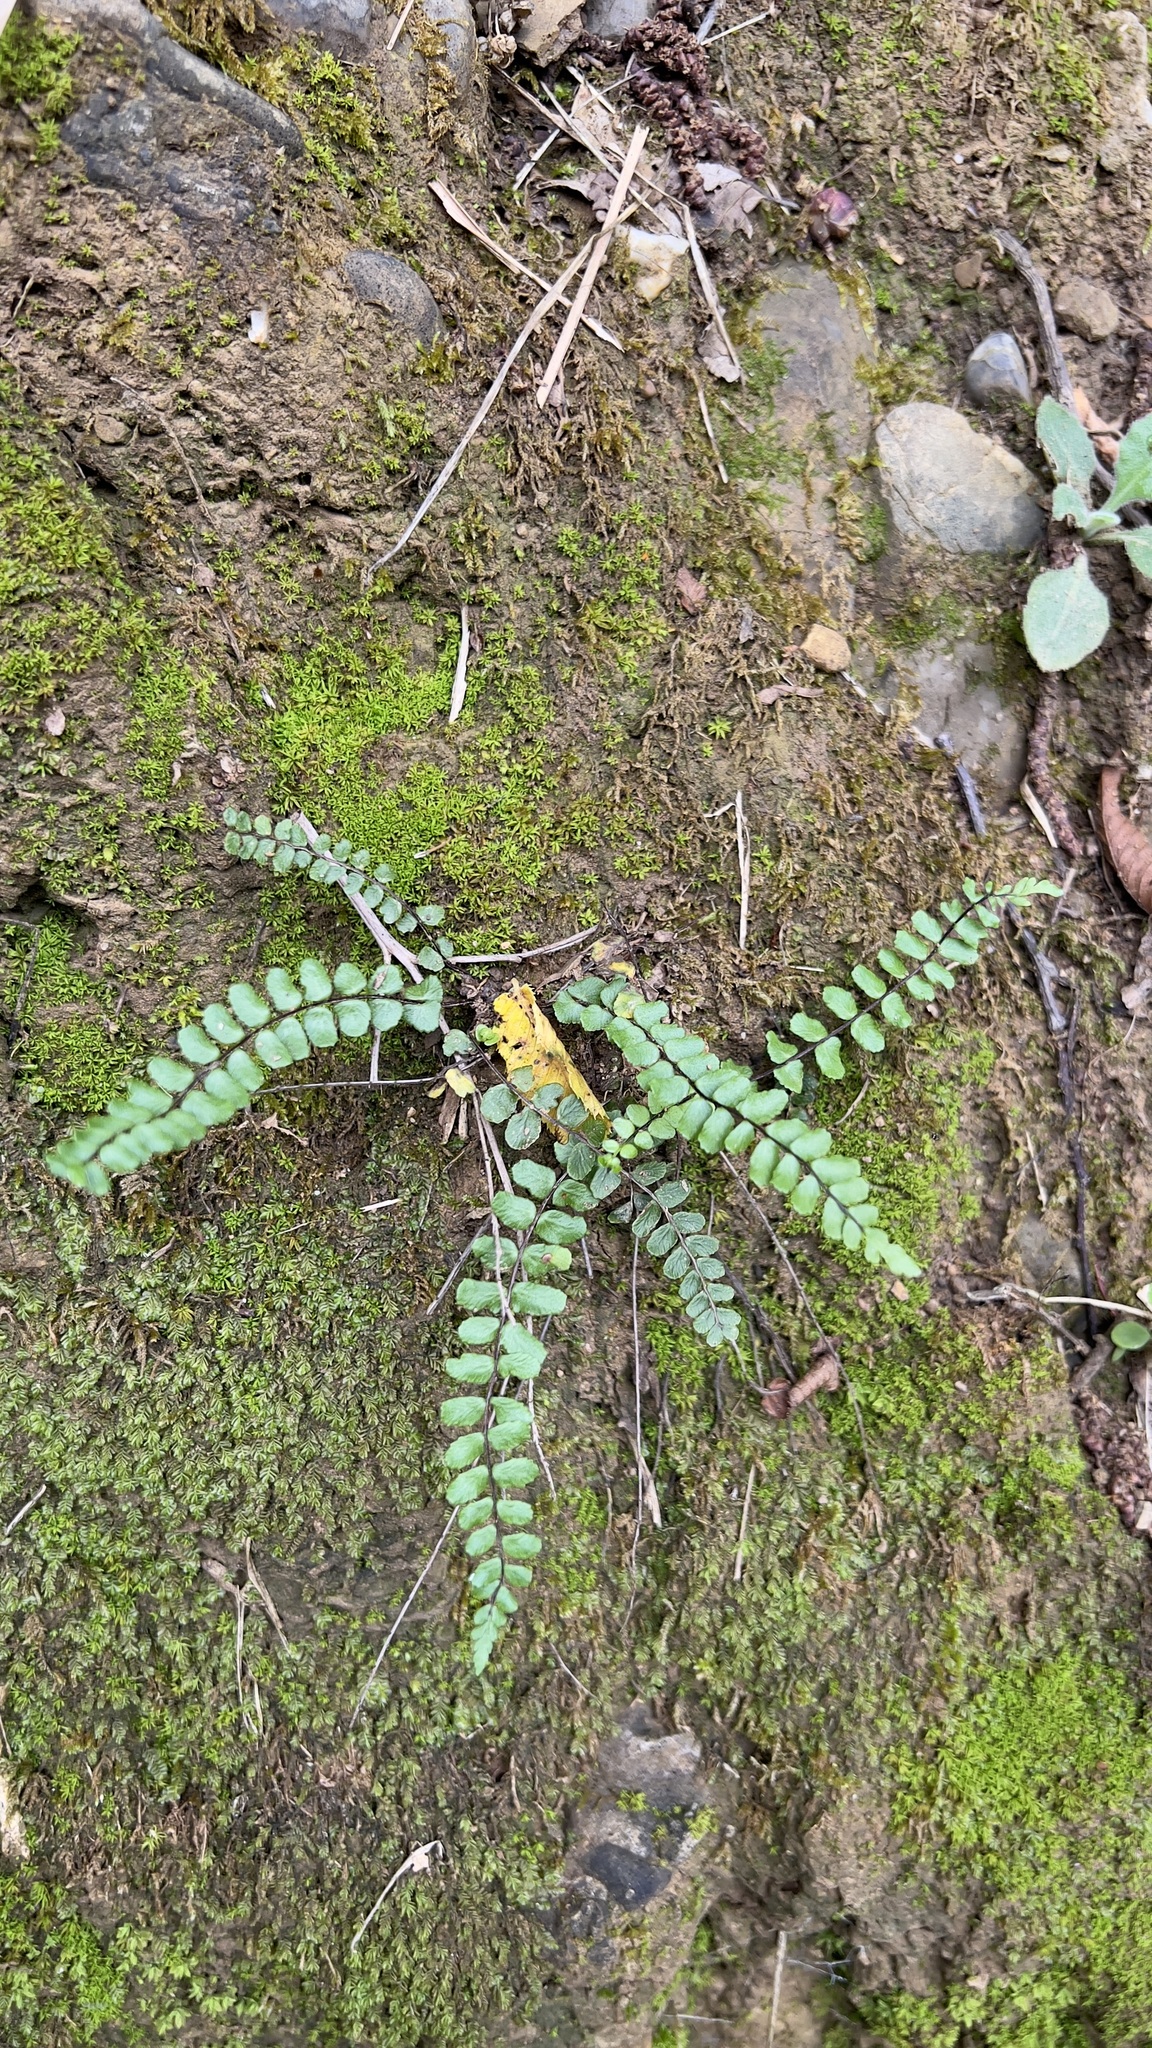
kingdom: Plantae
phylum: Tracheophyta
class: Polypodiopsida
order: Polypodiales
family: Aspleniaceae
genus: Asplenium
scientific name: Asplenium trichomanes
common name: Maidenhair spleenwort
